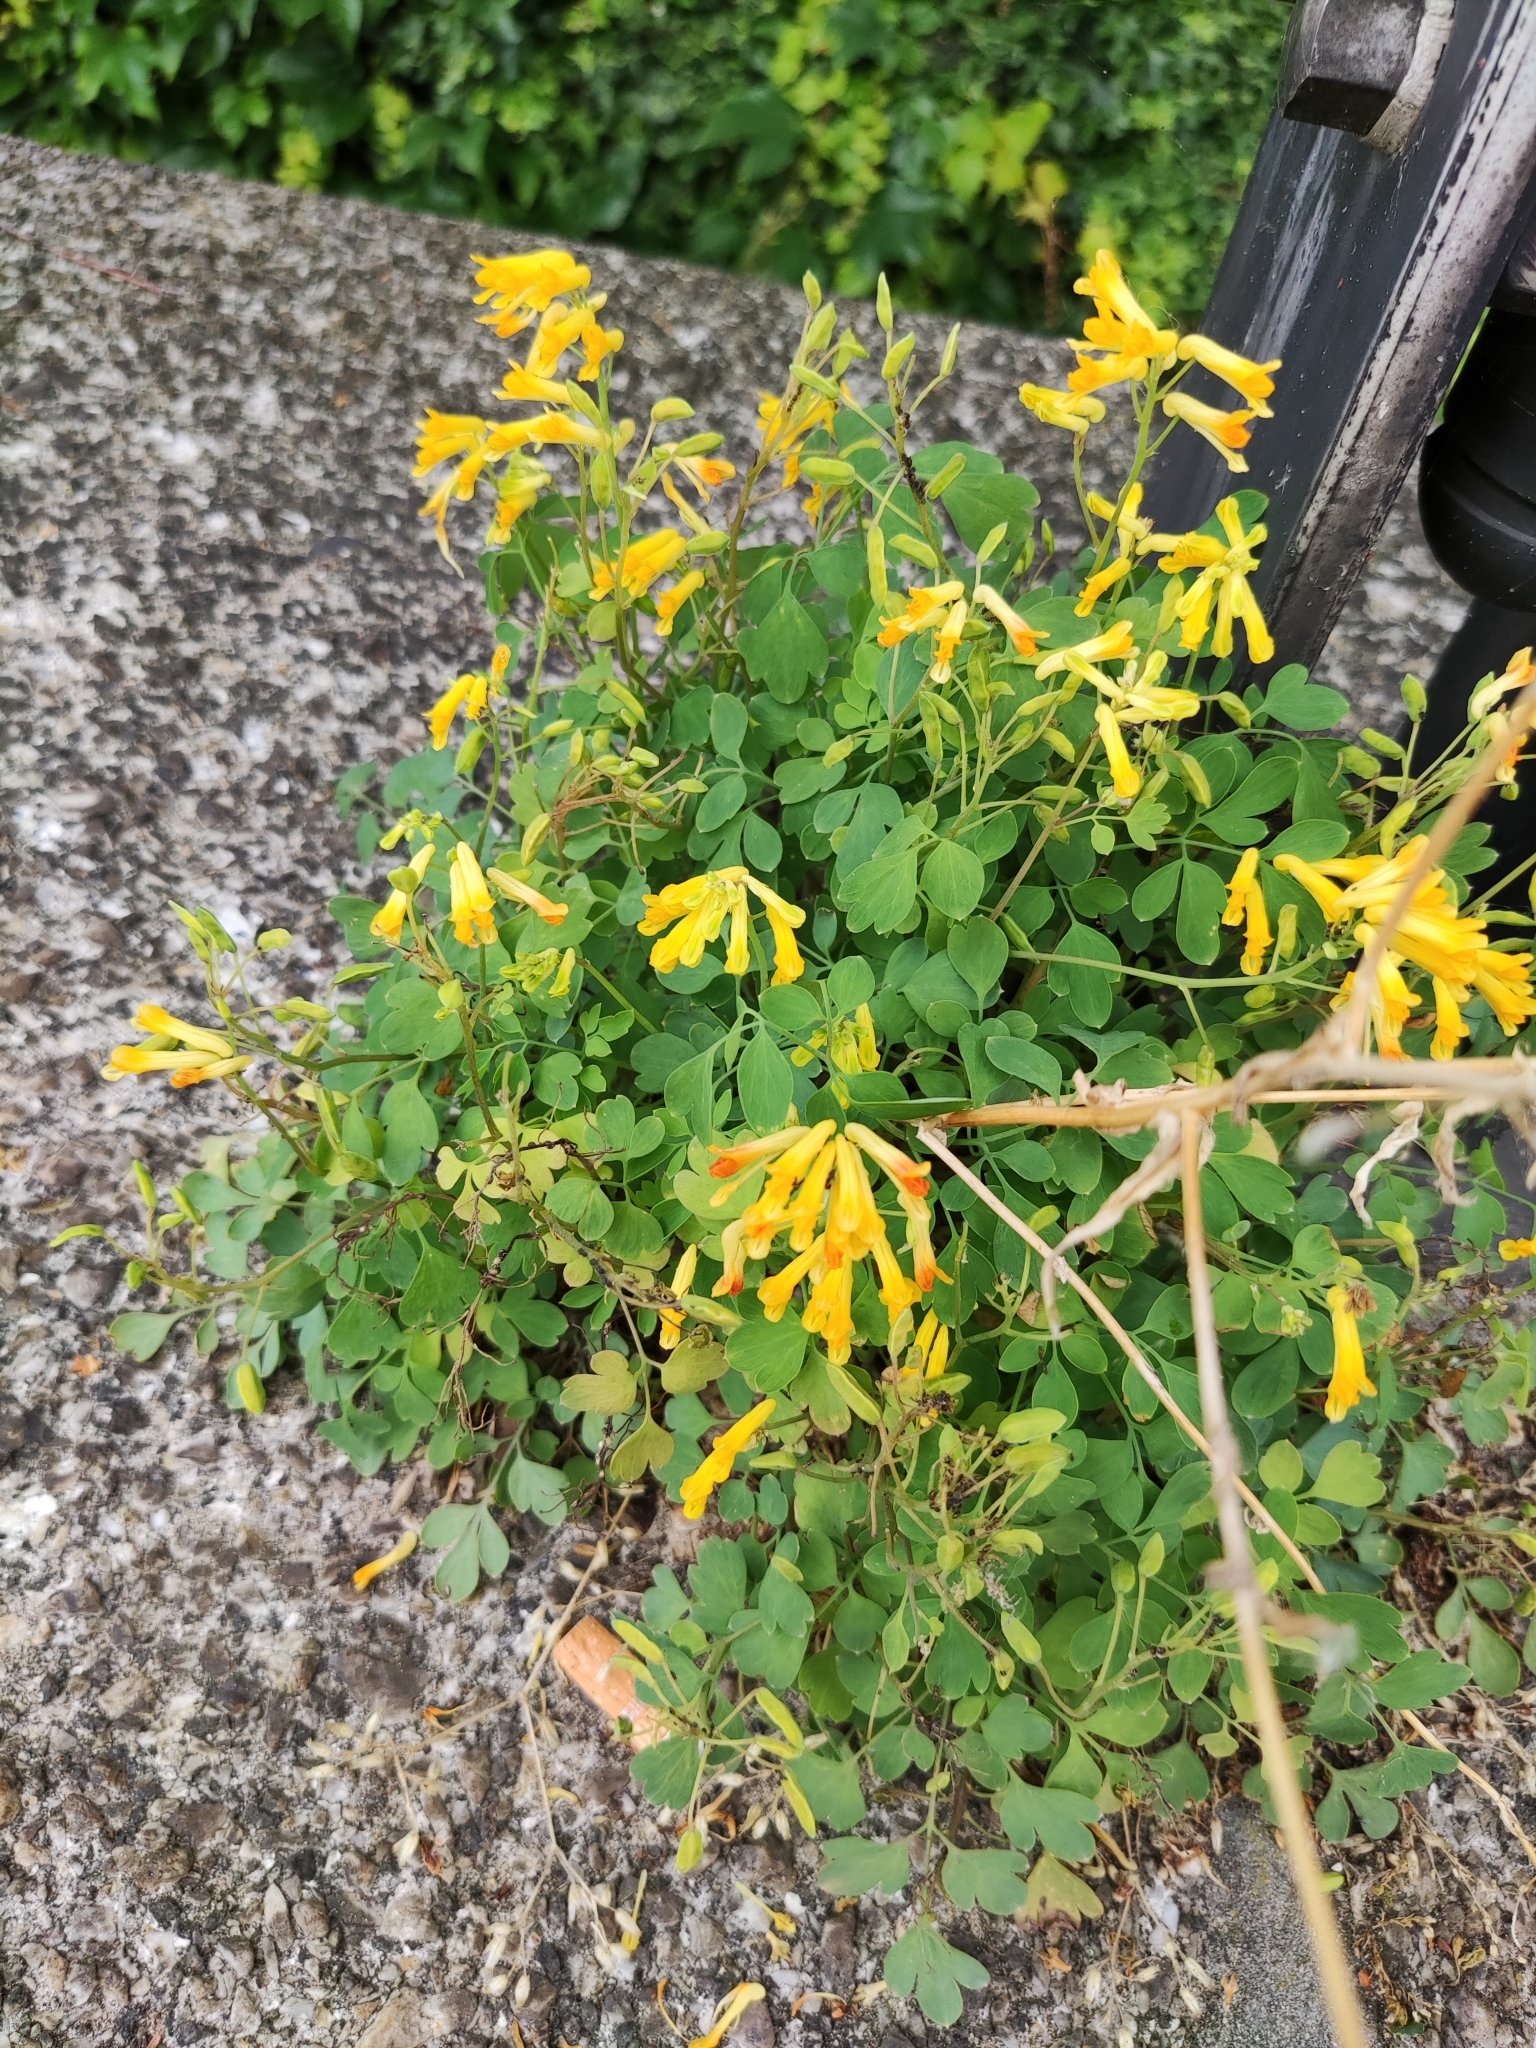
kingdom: Plantae
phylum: Tracheophyta
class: Magnoliopsida
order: Ranunculales
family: Papaveraceae
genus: Pseudofumaria
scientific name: Pseudofumaria lutea
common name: Yellow corydalis
